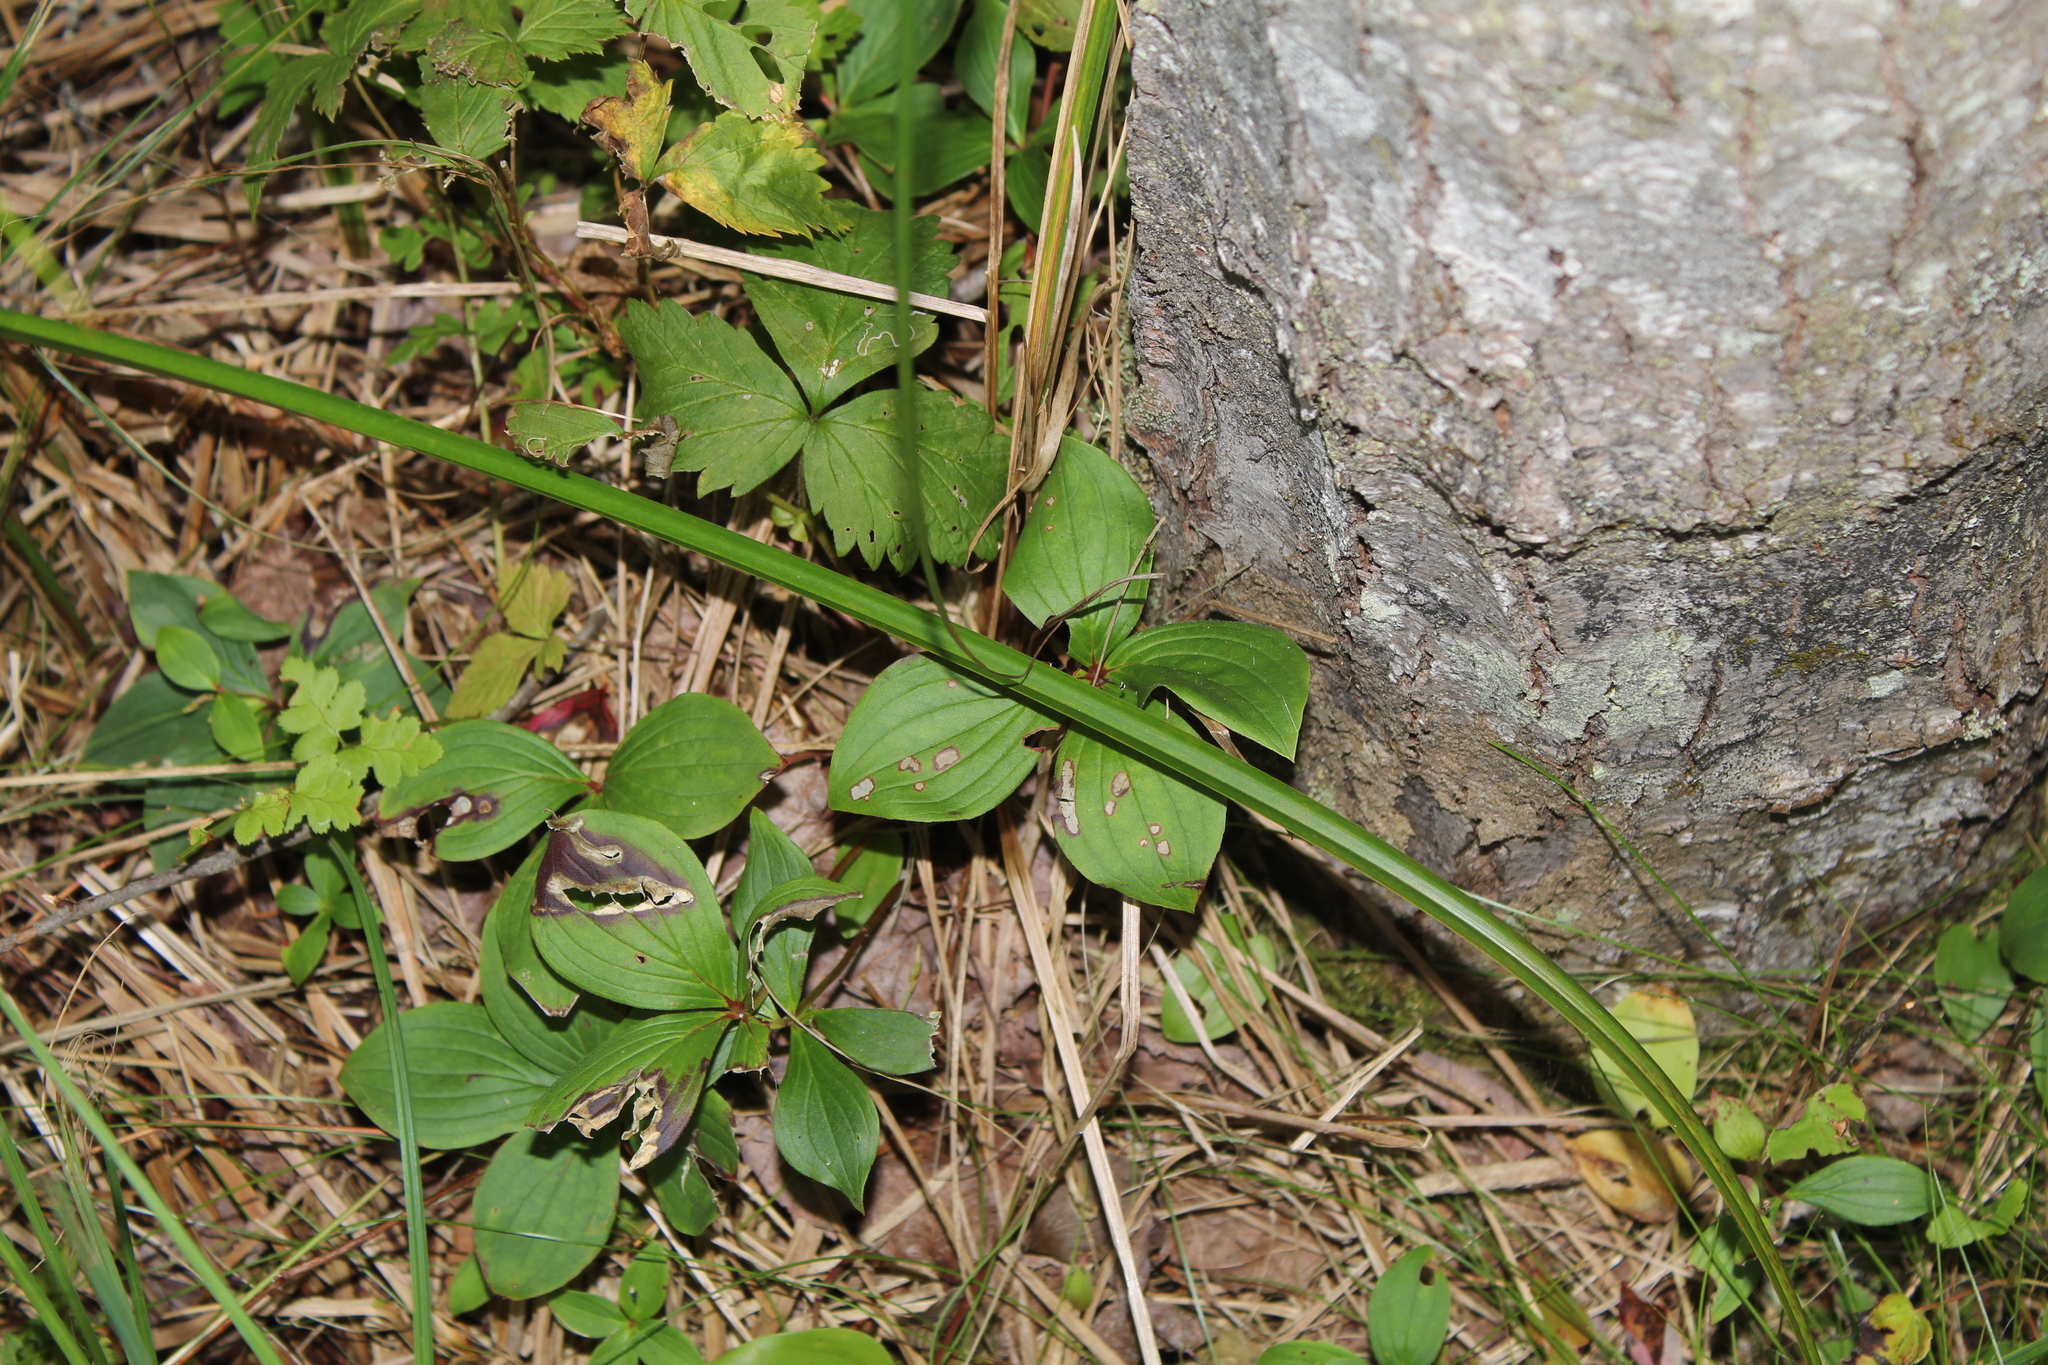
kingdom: Plantae
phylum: Tracheophyta
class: Magnoliopsida
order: Cornales
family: Cornaceae
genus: Cornus
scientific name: Cornus canadensis
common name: Creeping dogwood
